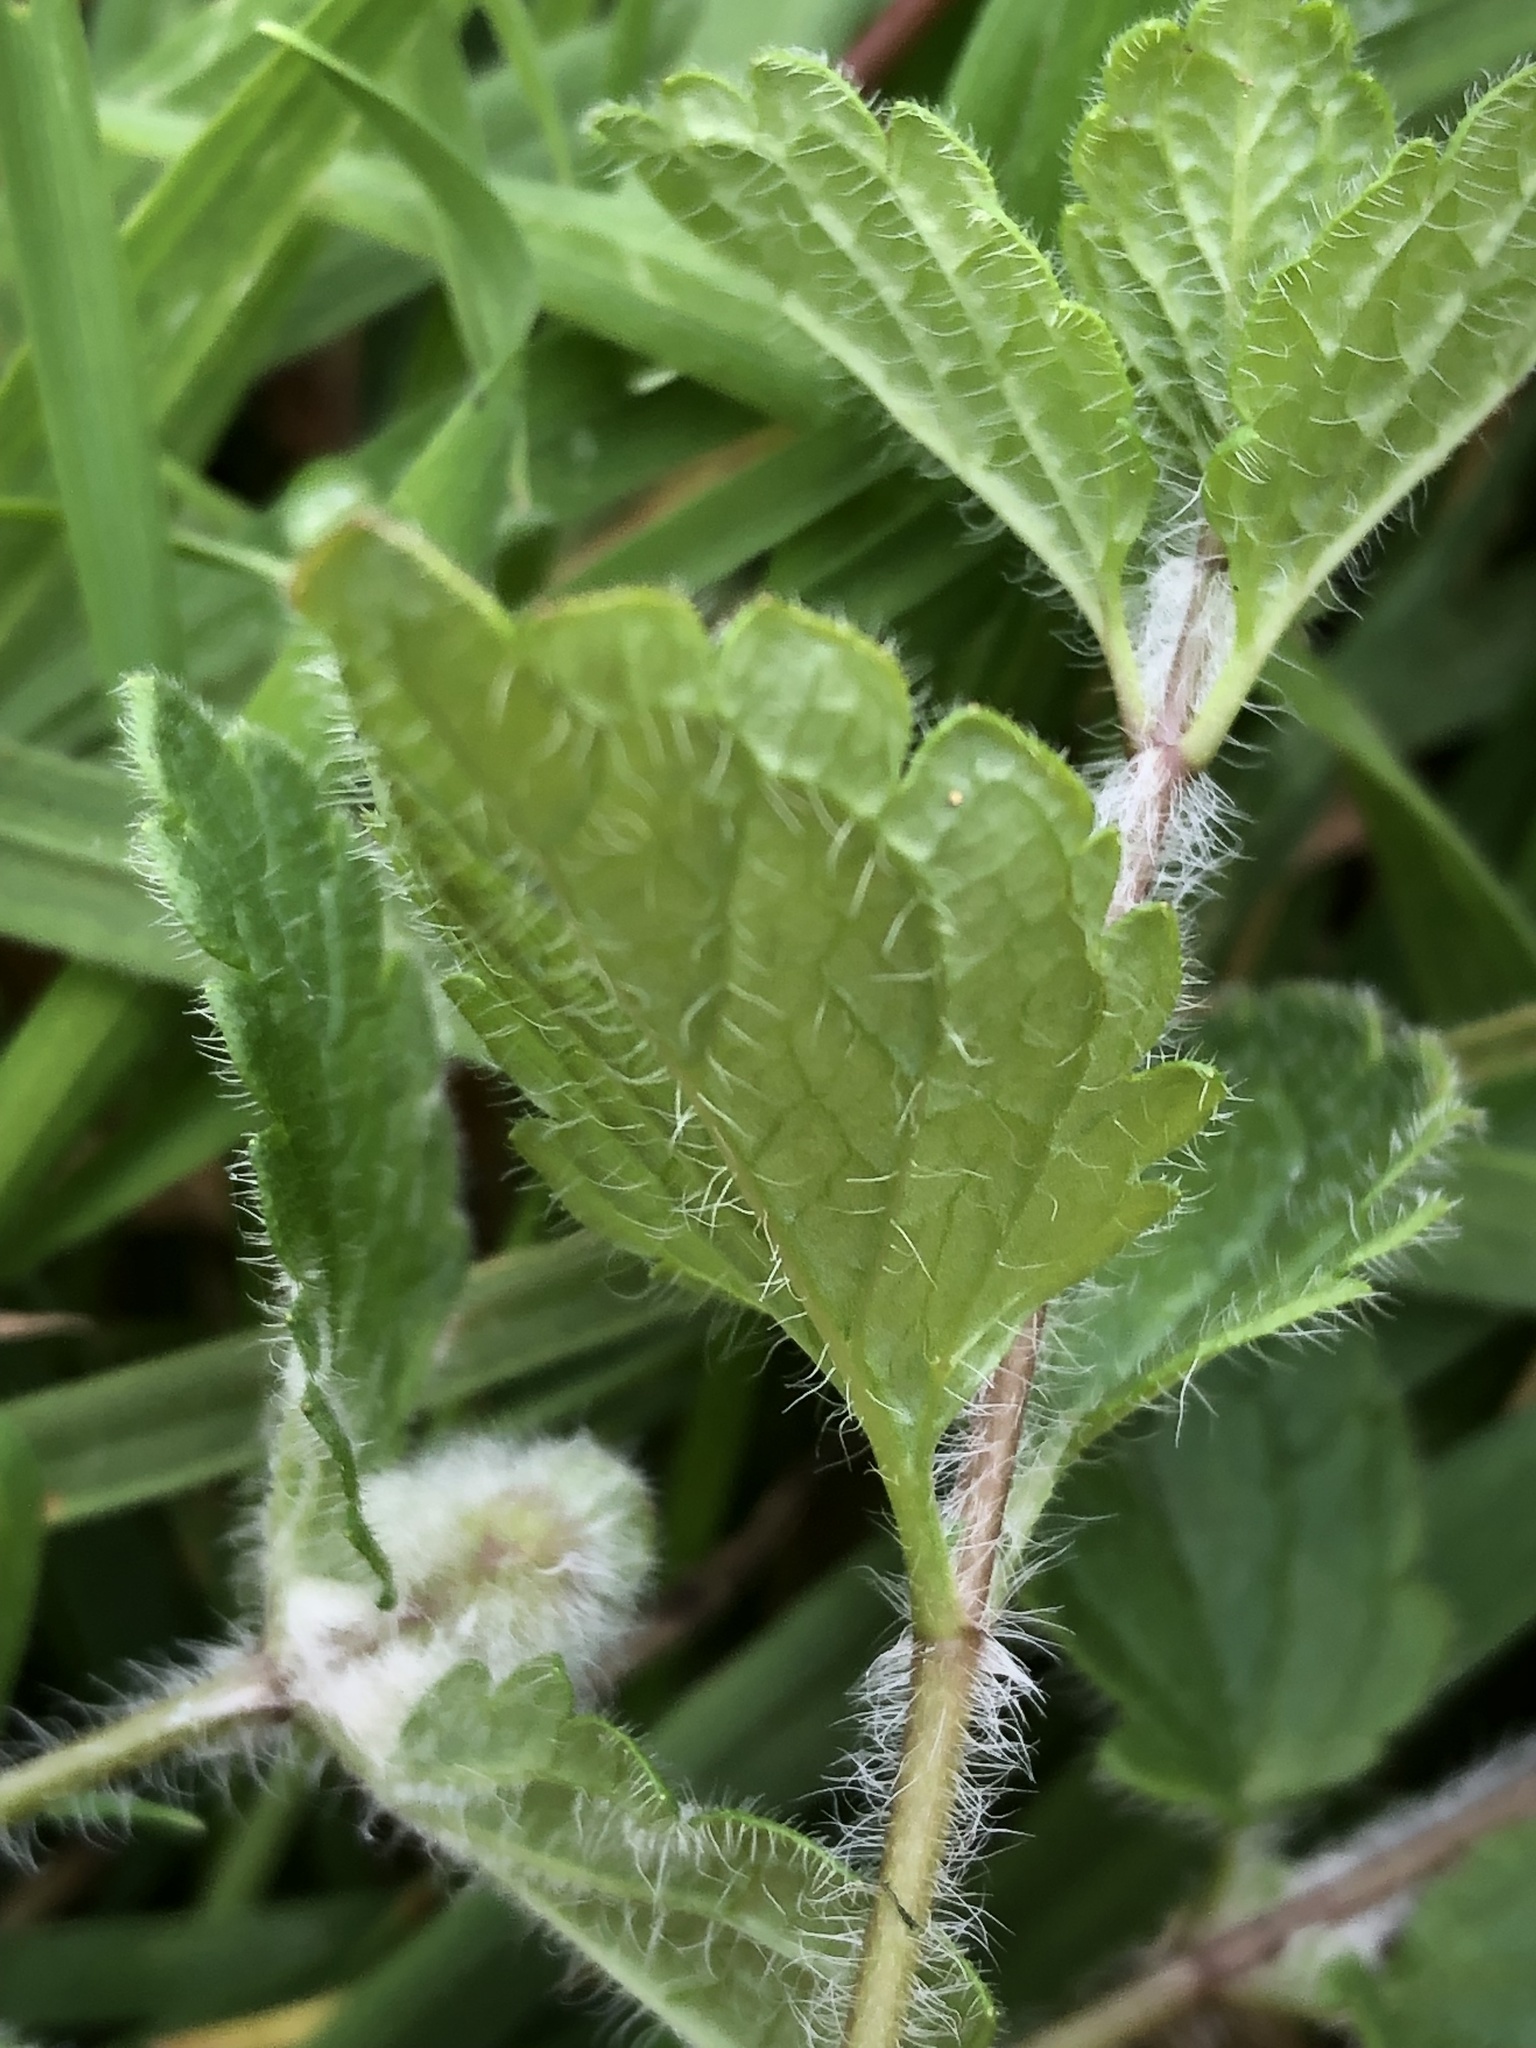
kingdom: Animalia
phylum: Arthropoda
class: Insecta
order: Diptera
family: Cecidomyiidae
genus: Jaapiella
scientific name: Jaapiella veronicae
